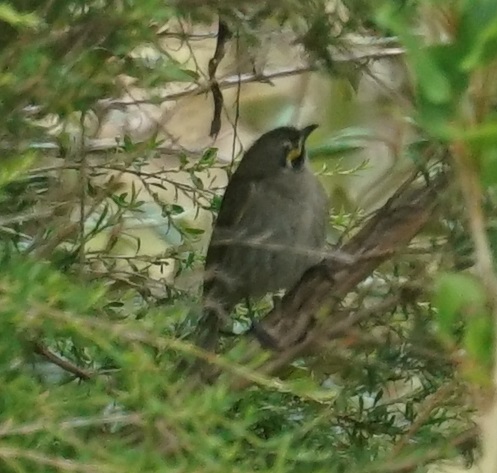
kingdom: Animalia
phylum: Chordata
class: Aves
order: Passeriformes
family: Meliphagidae
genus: Caligavis
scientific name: Caligavis chrysops
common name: Yellow-faced honeyeater
